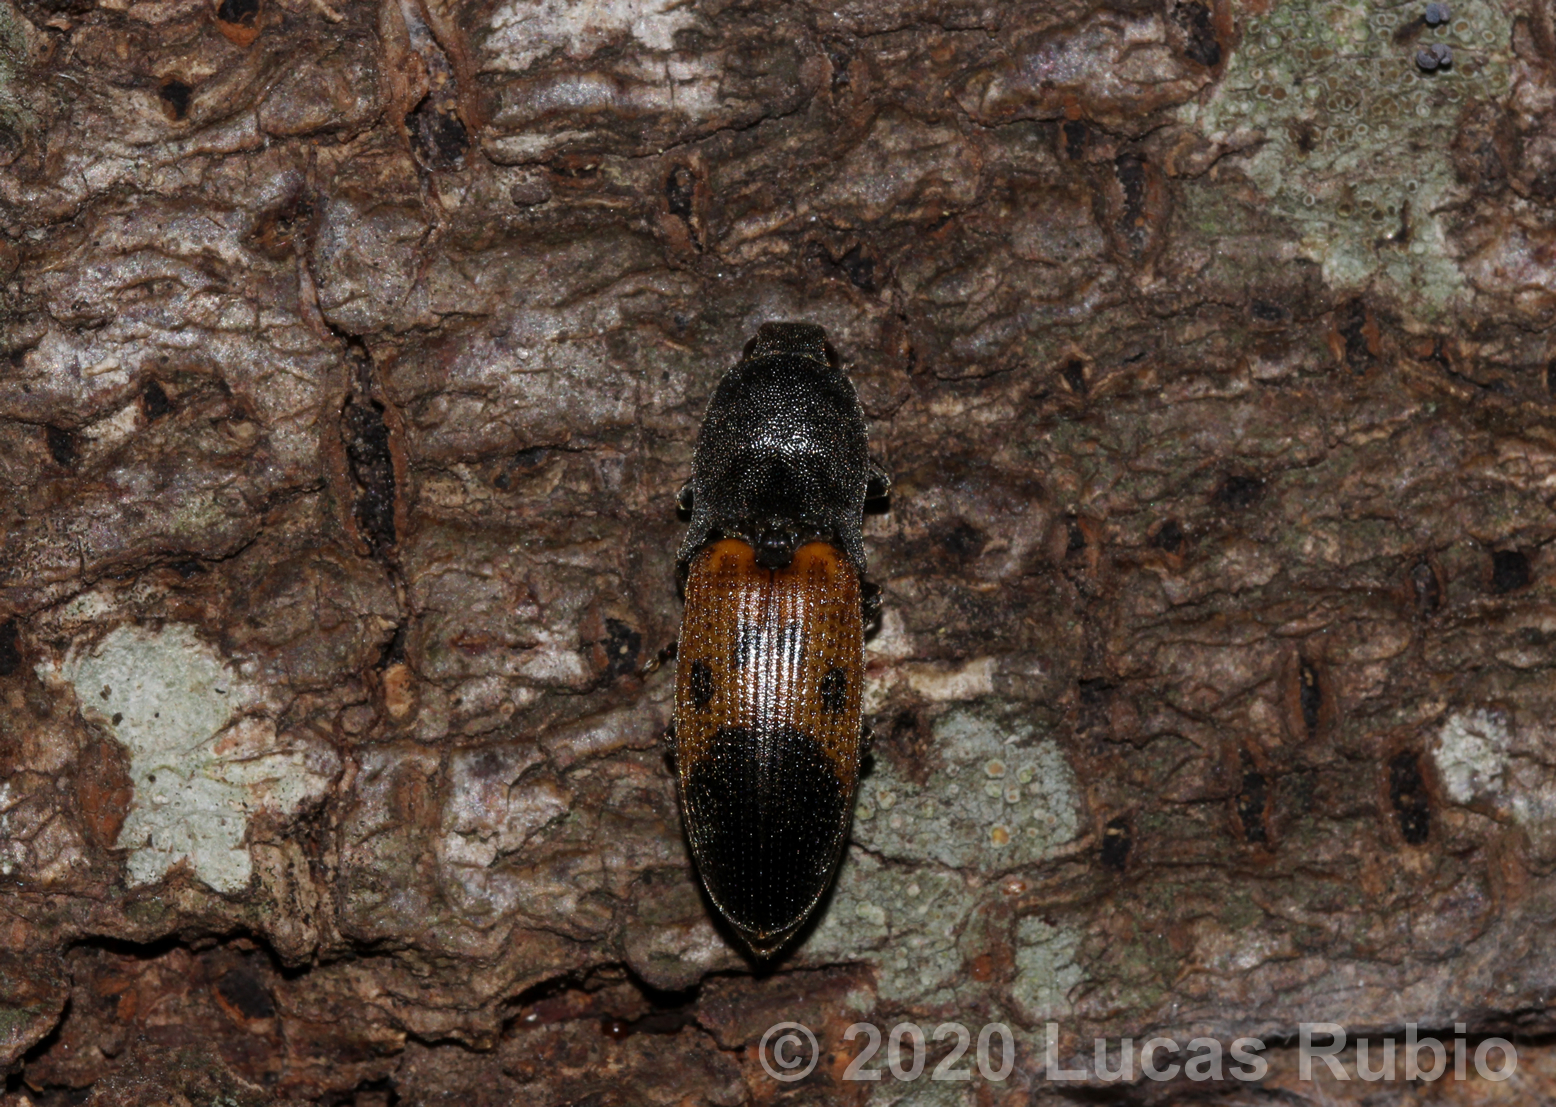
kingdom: Animalia
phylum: Arthropoda
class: Insecta
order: Coleoptera
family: Elateridae
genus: Monocrepidius
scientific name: Monocrepidius
